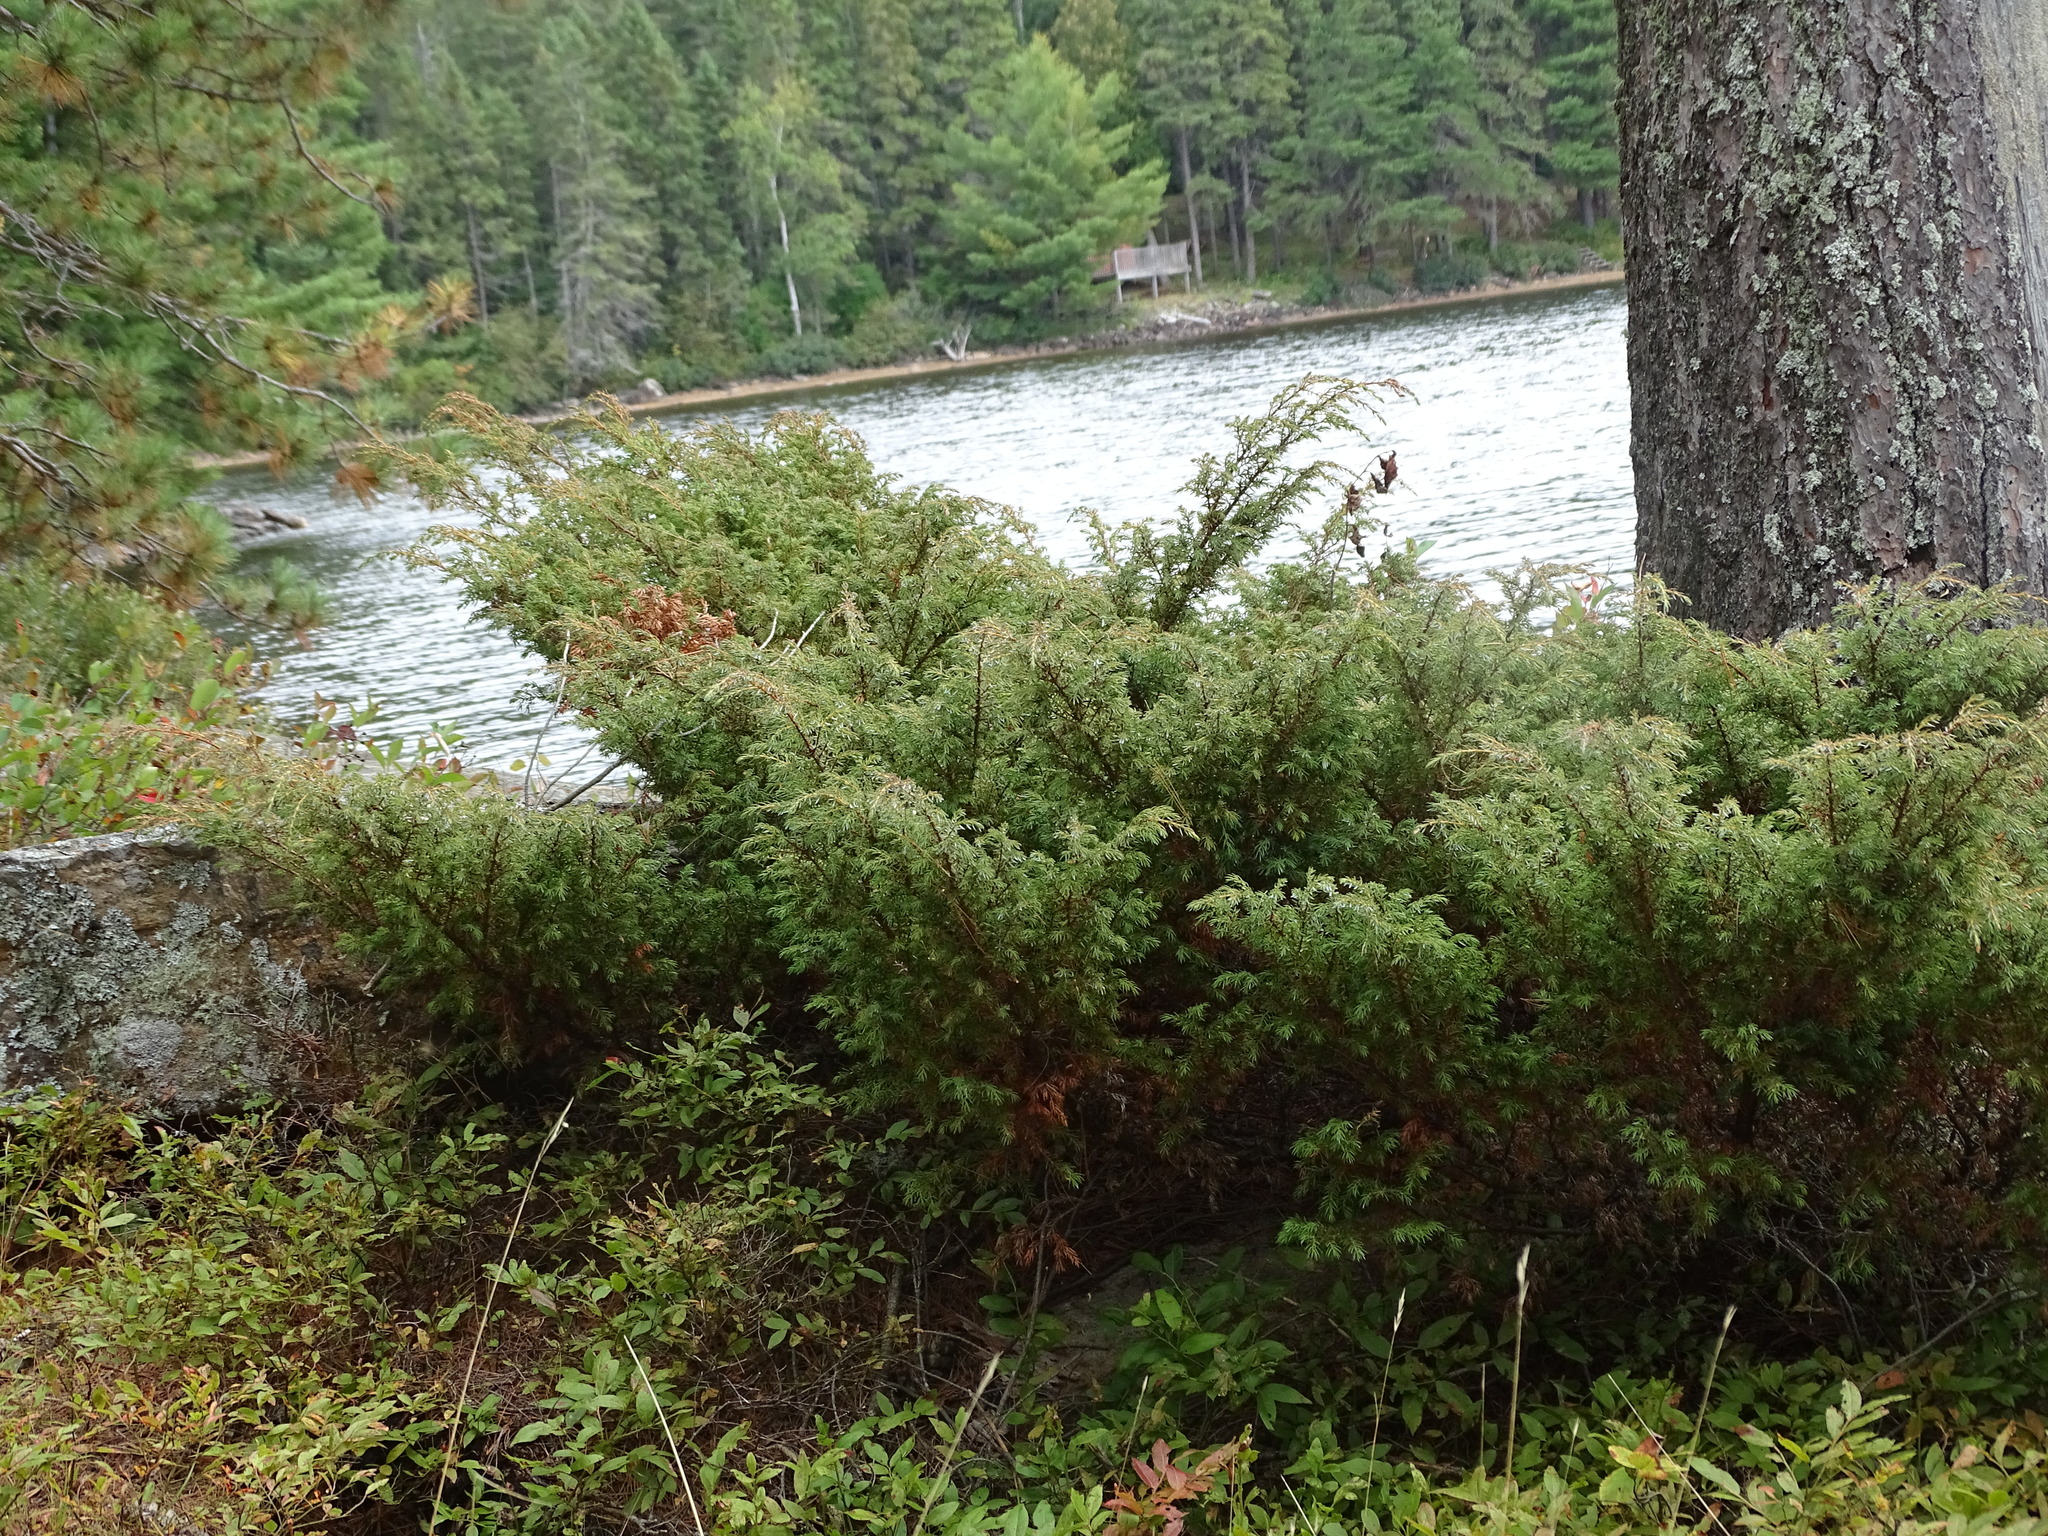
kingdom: Plantae
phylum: Tracheophyta
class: Pinopsida
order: Pinales
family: Cupressaceae
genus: Juniperus
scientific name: Juniperus communis
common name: Common juniper
